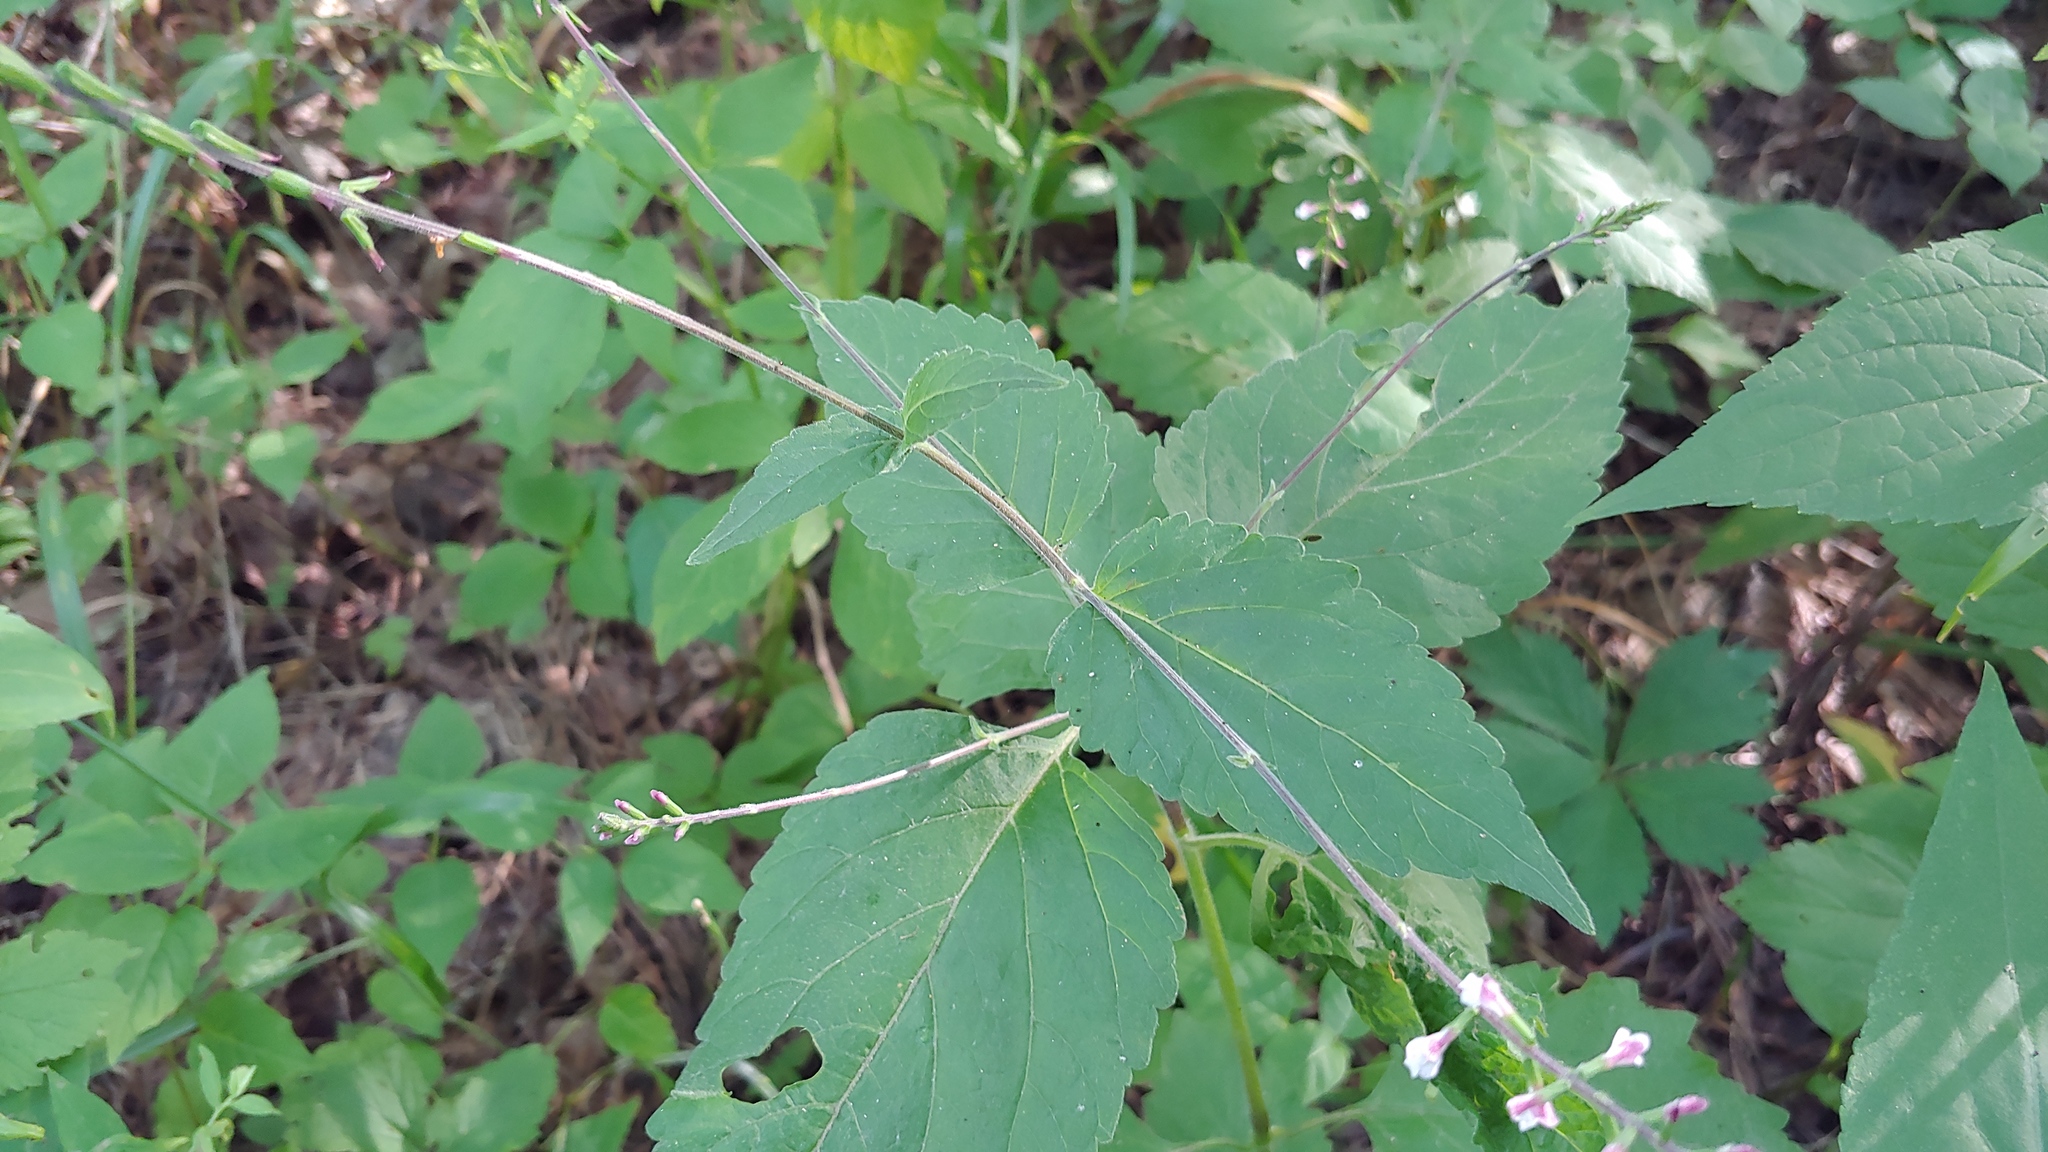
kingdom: Plantae
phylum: Tracheophyta
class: Magnoliopsida
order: Lamiales
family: Phrymaceae
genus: Phryma
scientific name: Phryma leptostachya
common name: American lopseed
